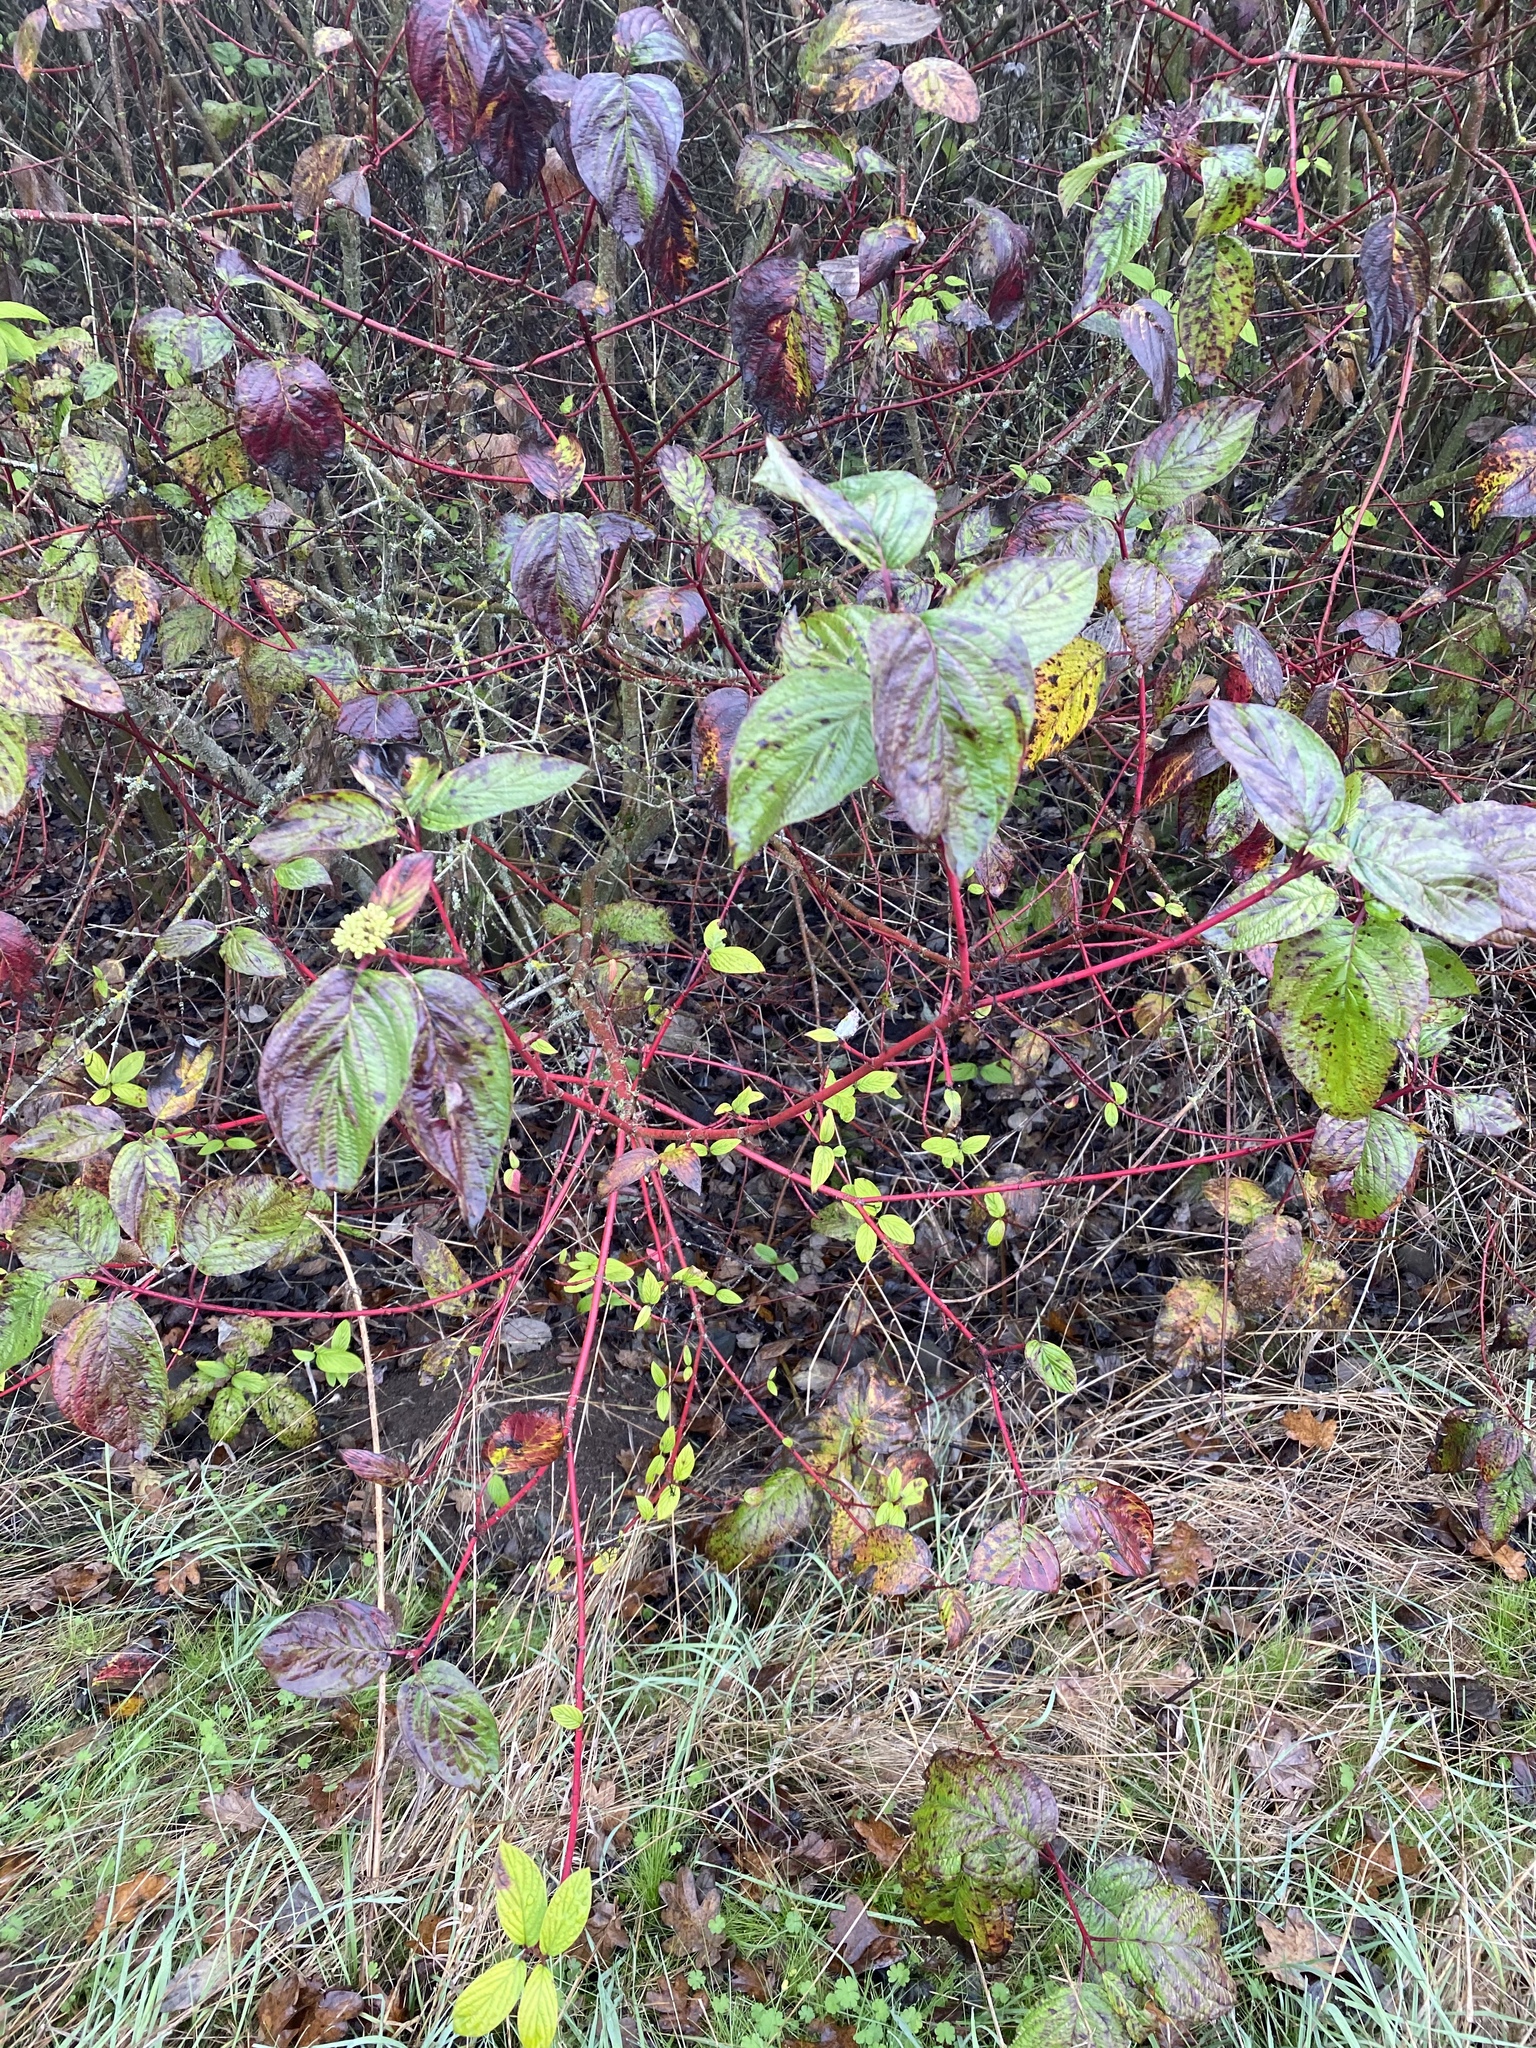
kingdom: Plantae
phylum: Tracheophyta
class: Magnoliopsida
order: Cornales
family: Cornaceae
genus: Cornus
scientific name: Cornus sericea
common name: Red-osier dogwood
